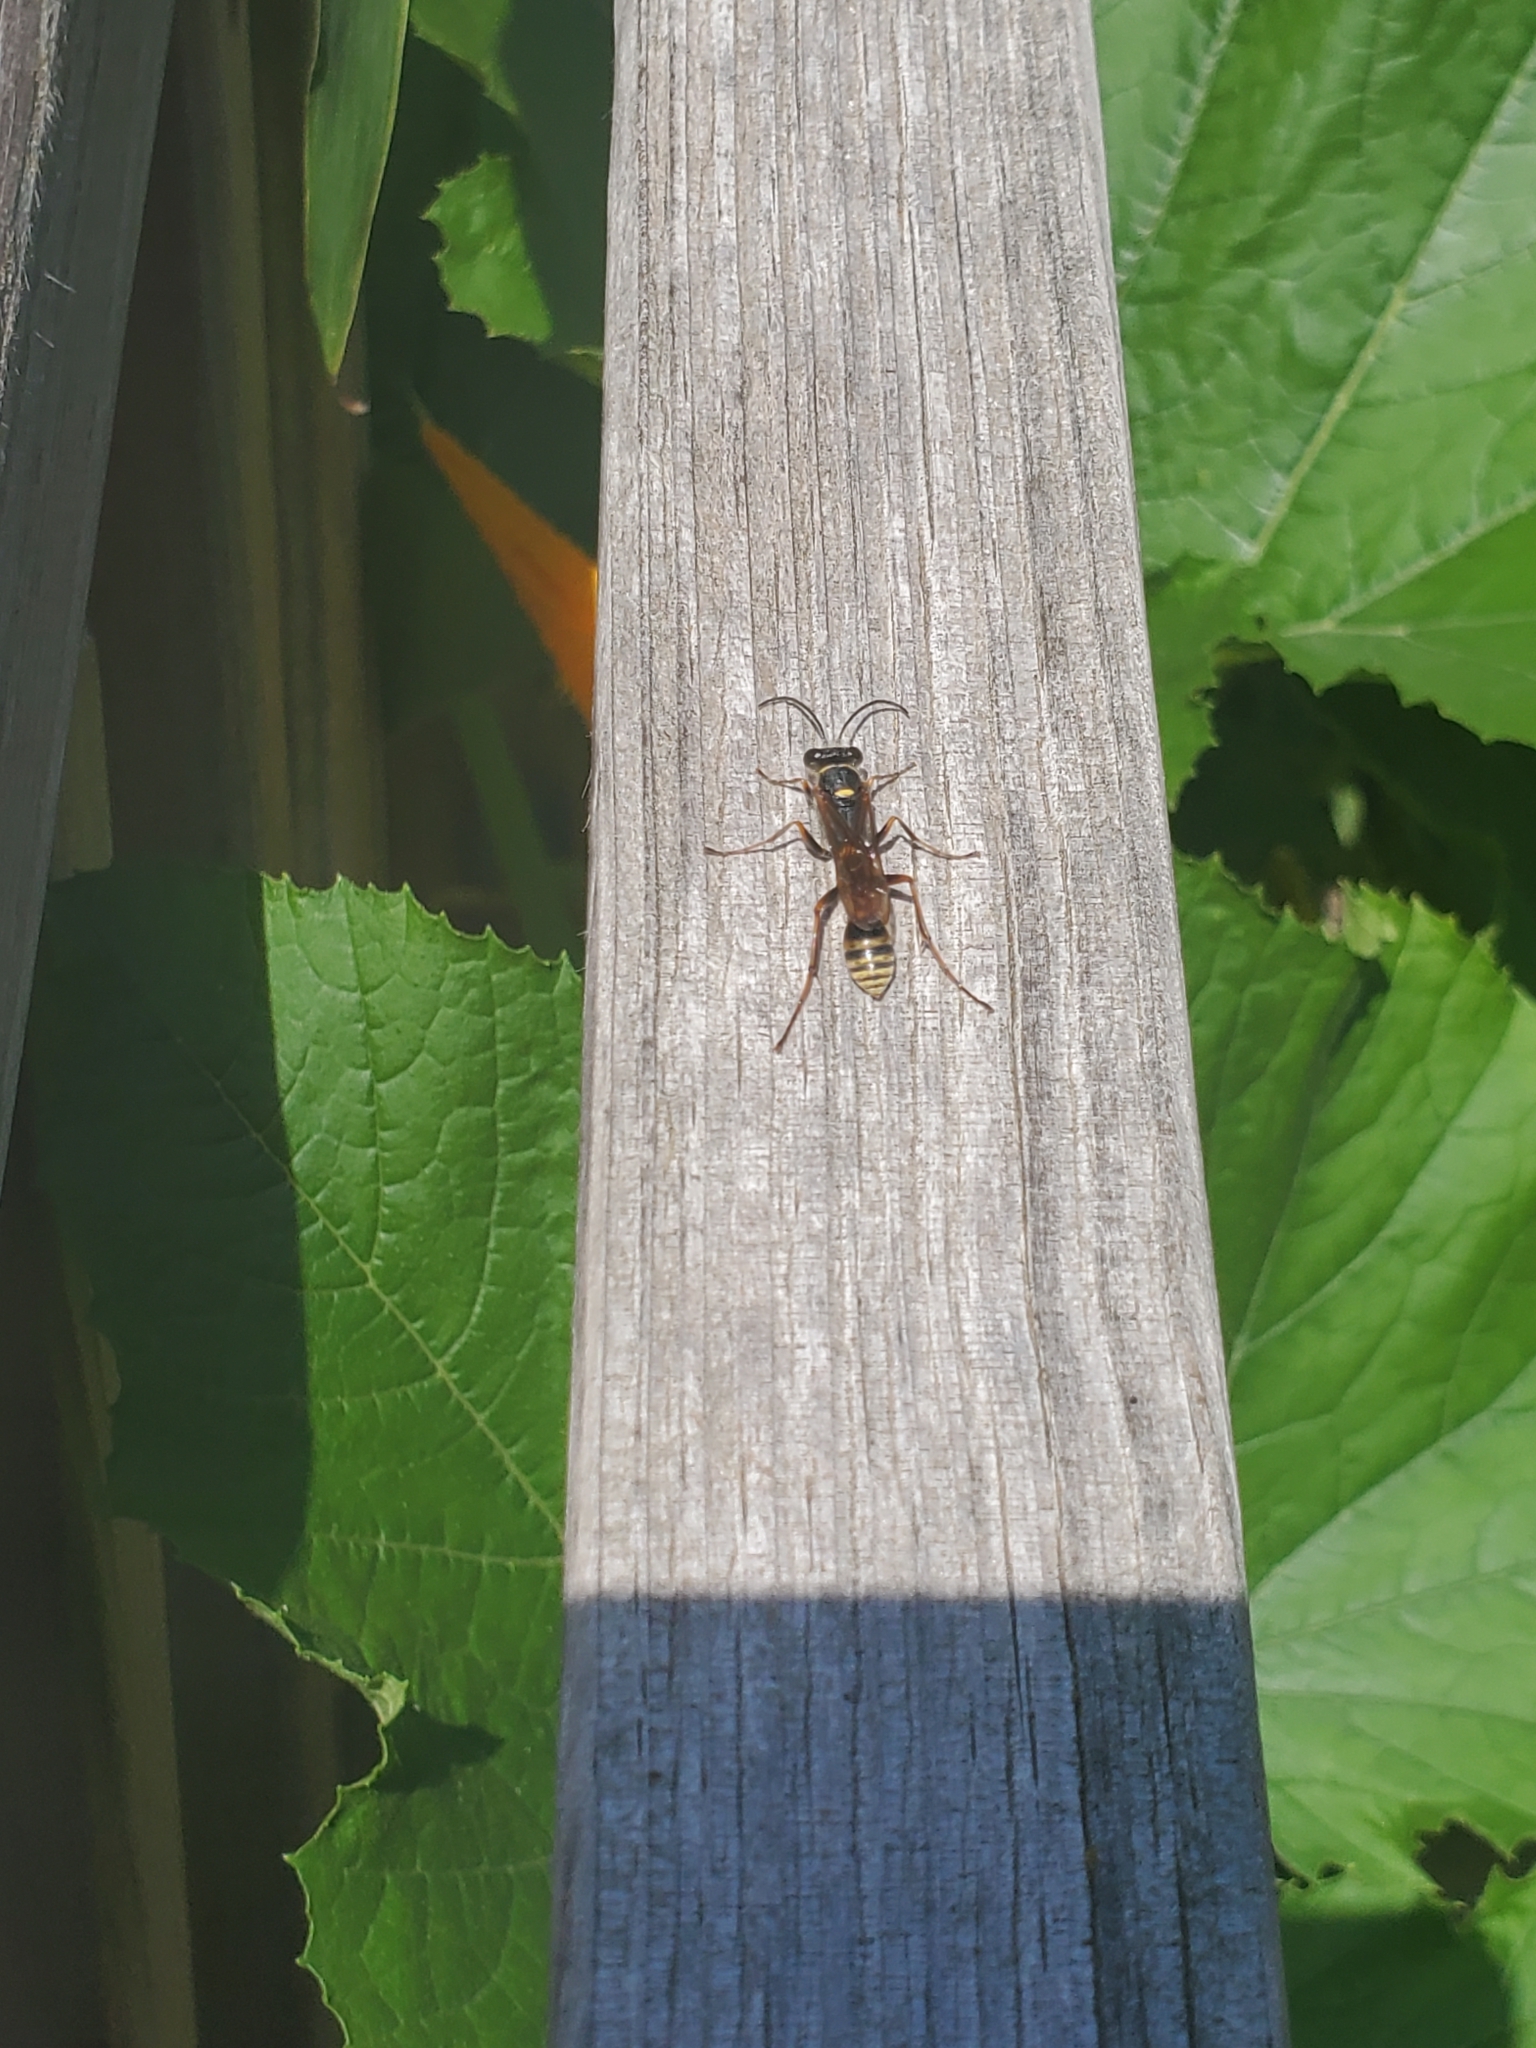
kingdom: Animalia
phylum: Arthropoda
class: Insecta
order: Hymenoptera
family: Sphecidae
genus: Sceliphron
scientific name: Sceliphron curvatum
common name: Pèlopèe
